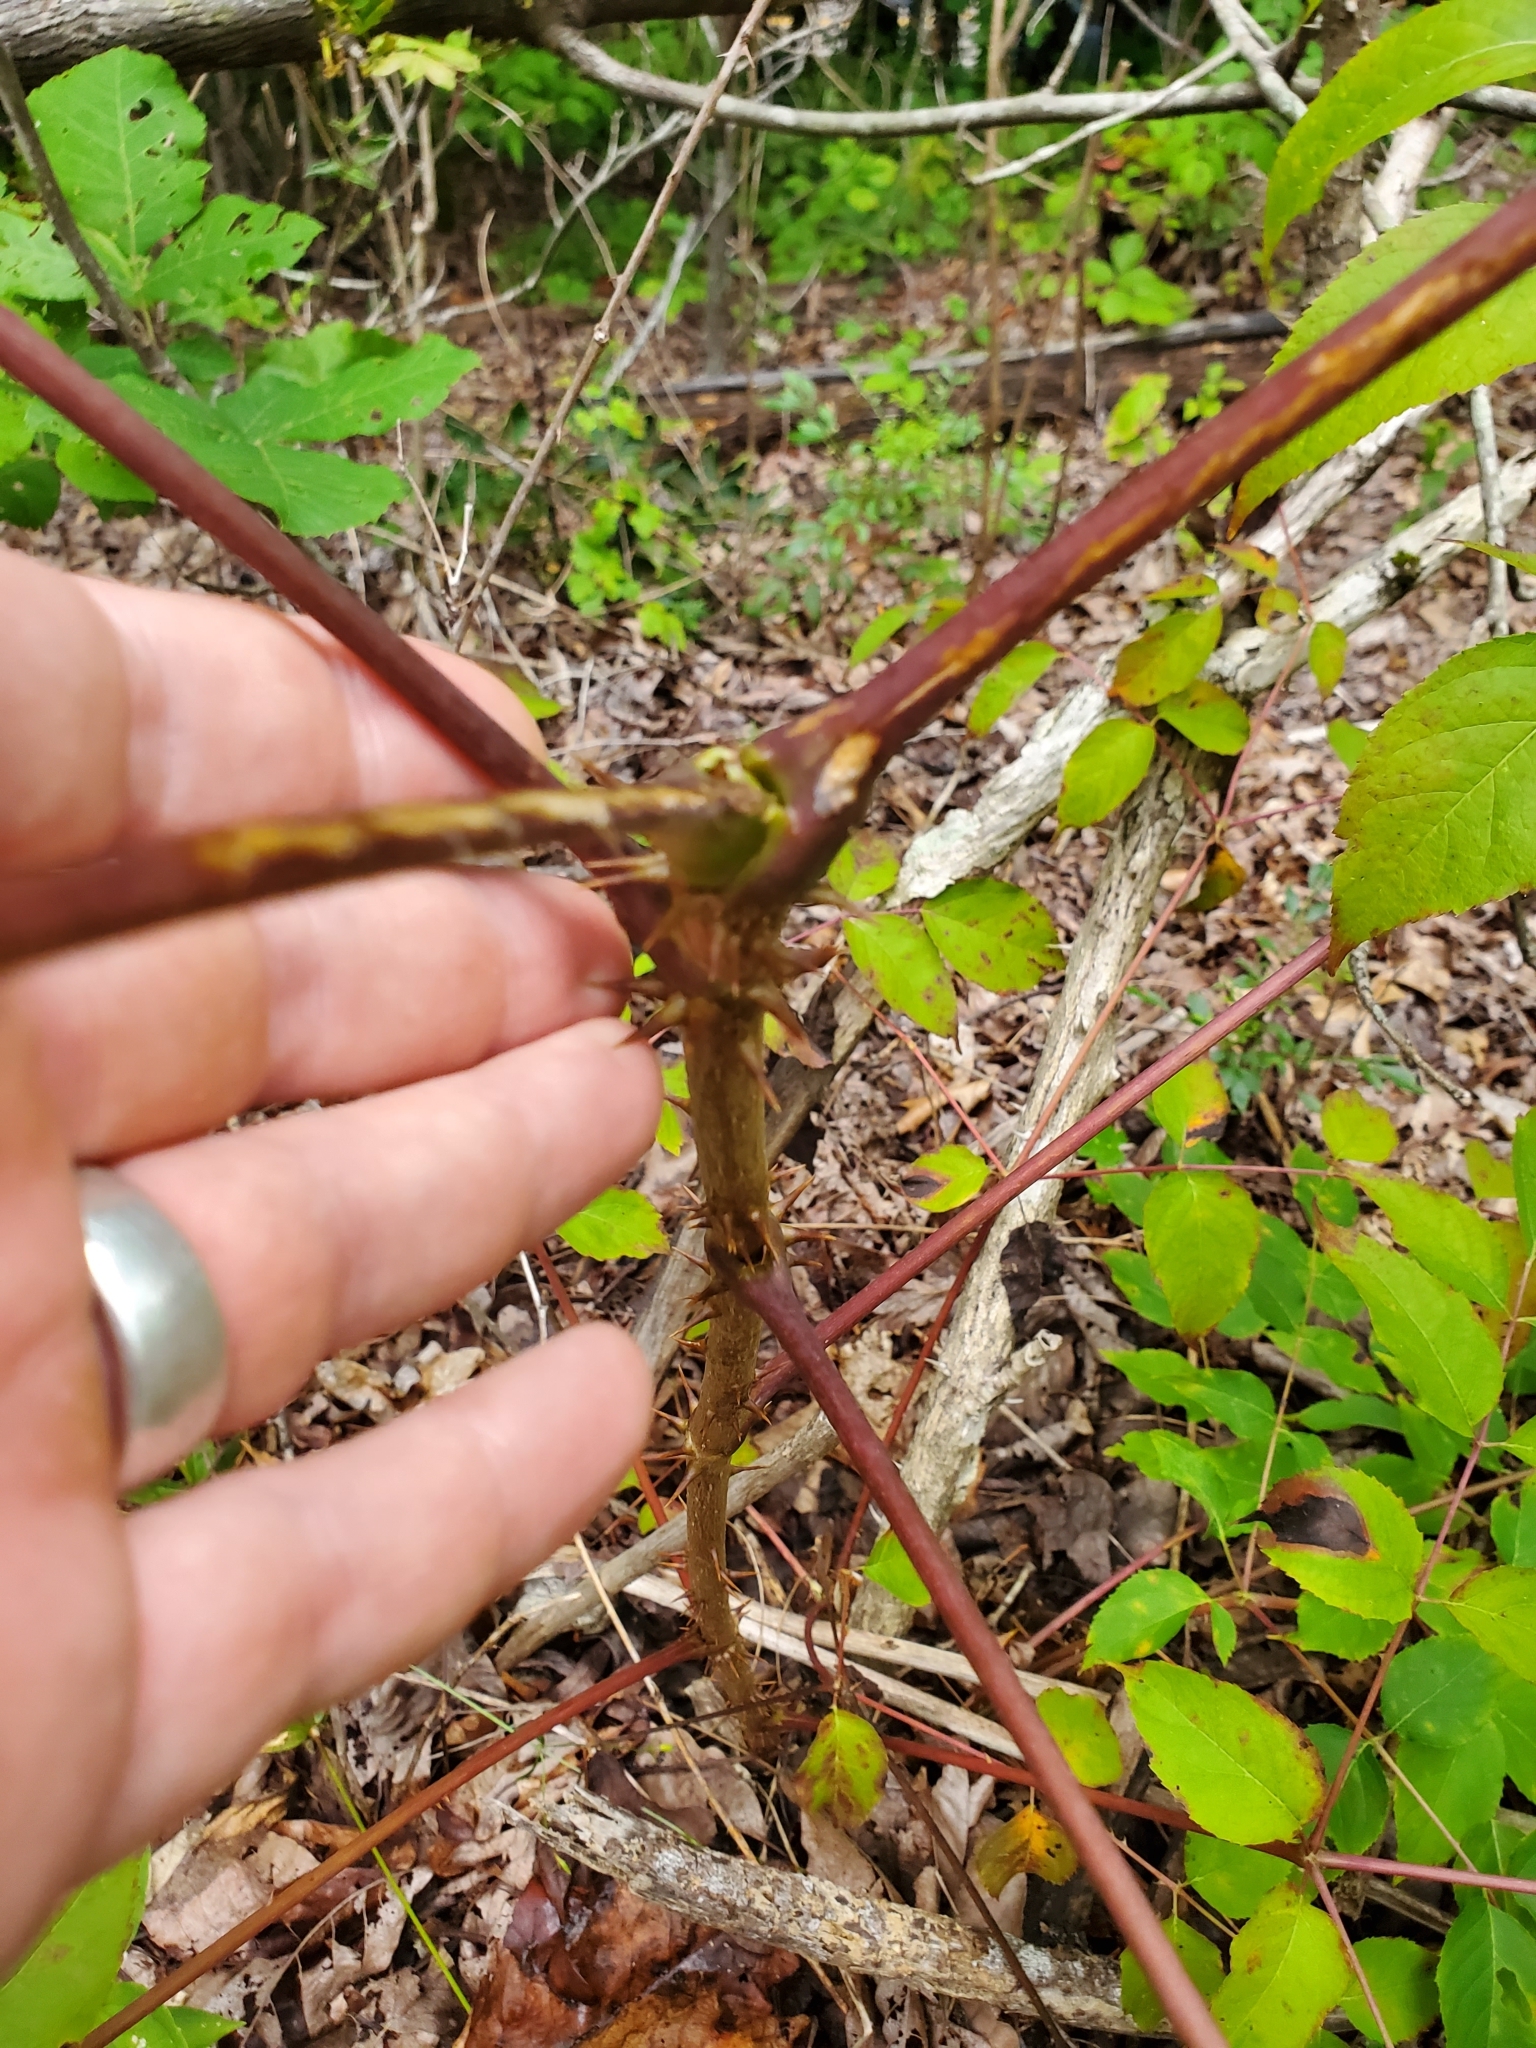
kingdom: Plantae
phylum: Tracheophyta
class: Magnoliopsida
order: Apiales
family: Araliaceae
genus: Aralia
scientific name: Aralia spinosa
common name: Hercules'-club
